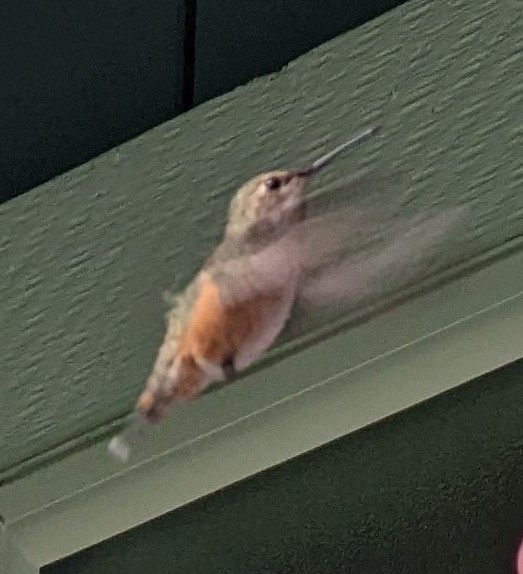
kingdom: Animalia
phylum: Chordata
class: Aves
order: Apodiformes
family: Trochilidae
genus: Selasphorus
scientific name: Selasphorus rufus
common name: Rufous hummingbird
